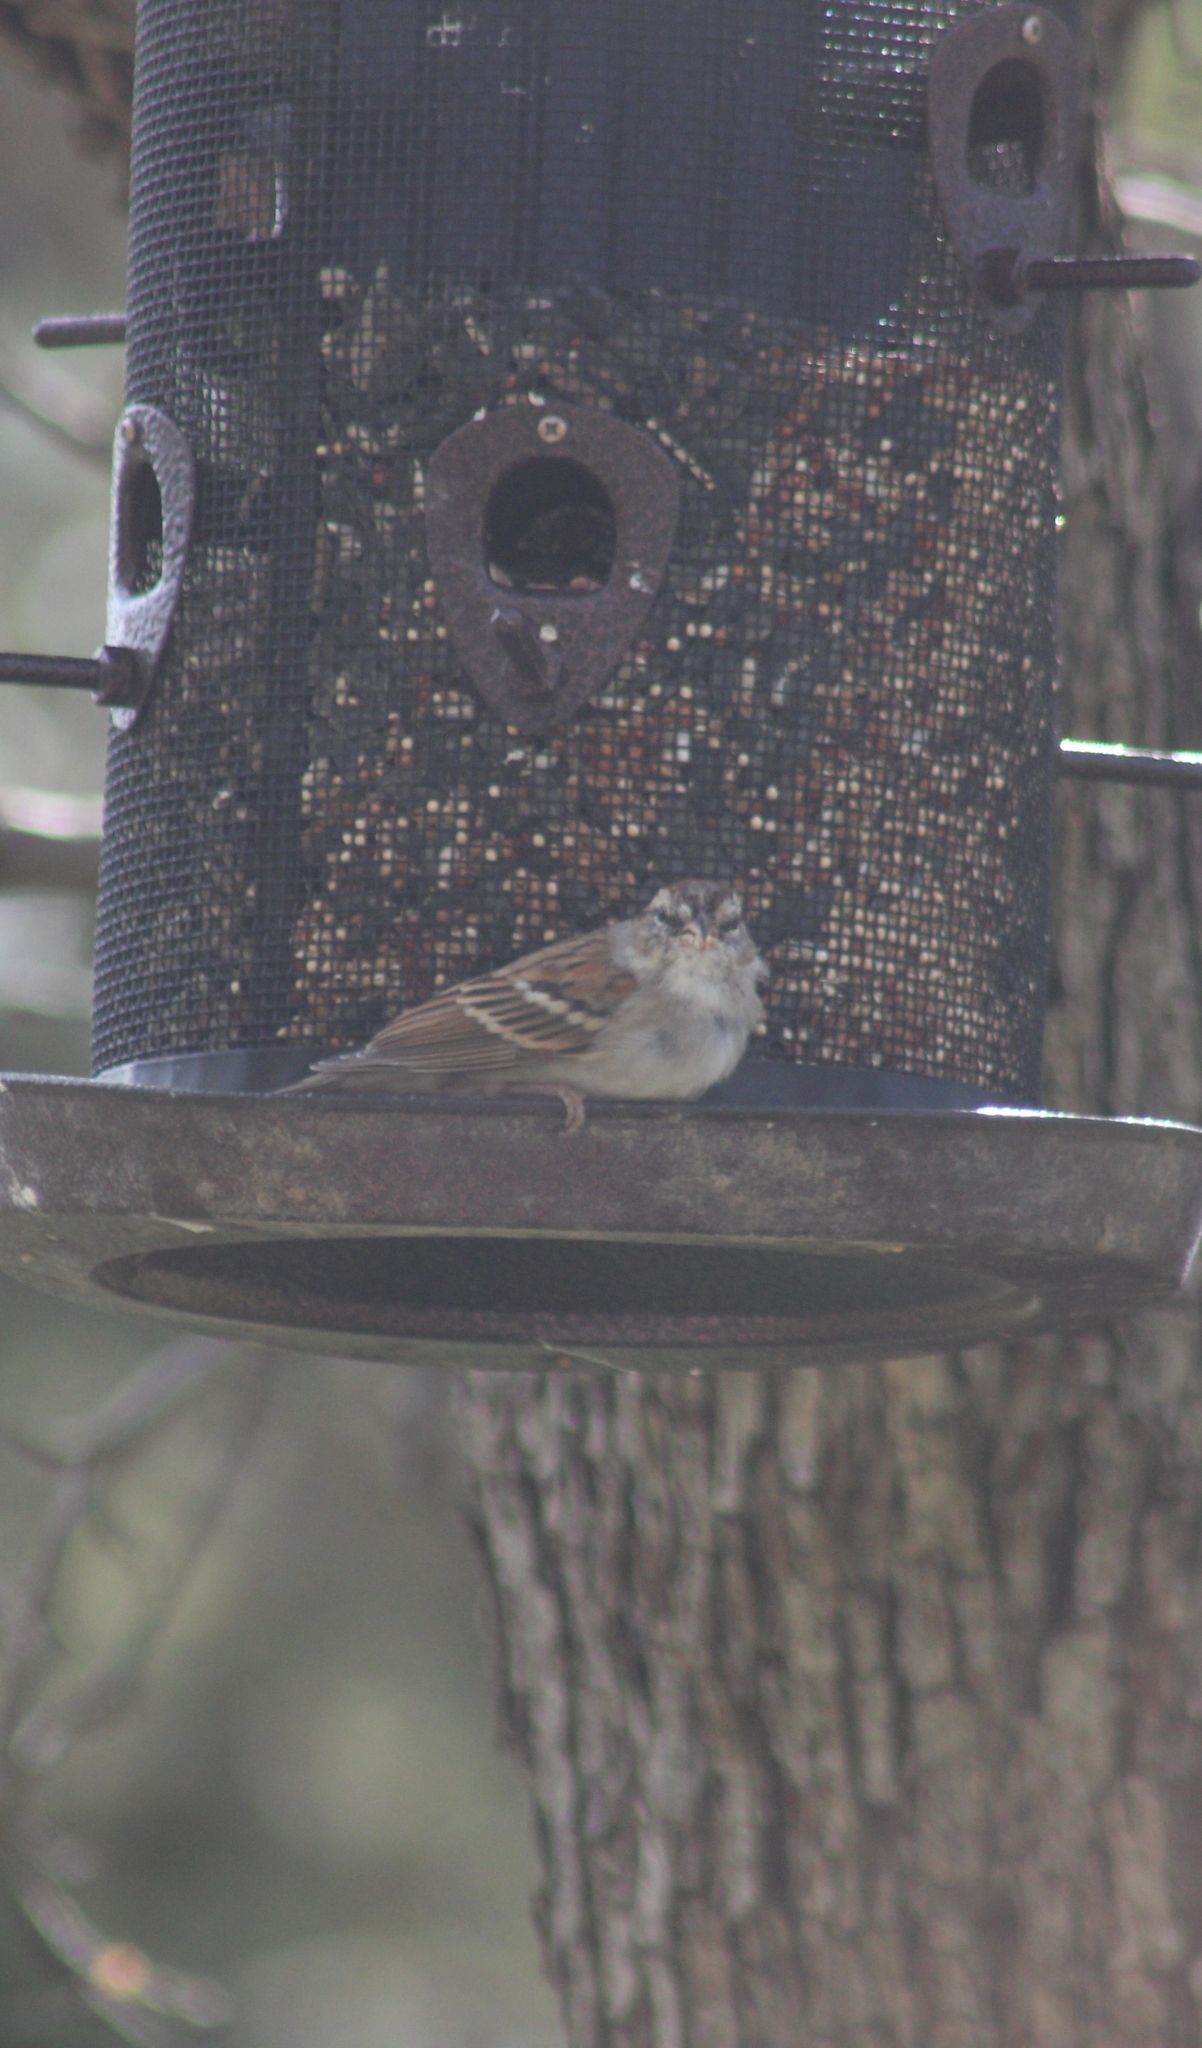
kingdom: Animalia
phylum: Chordata
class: Aves
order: Passeriformes
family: Passerellidae
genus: Spizella
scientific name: Spizella passerina
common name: Chipping sparrow
